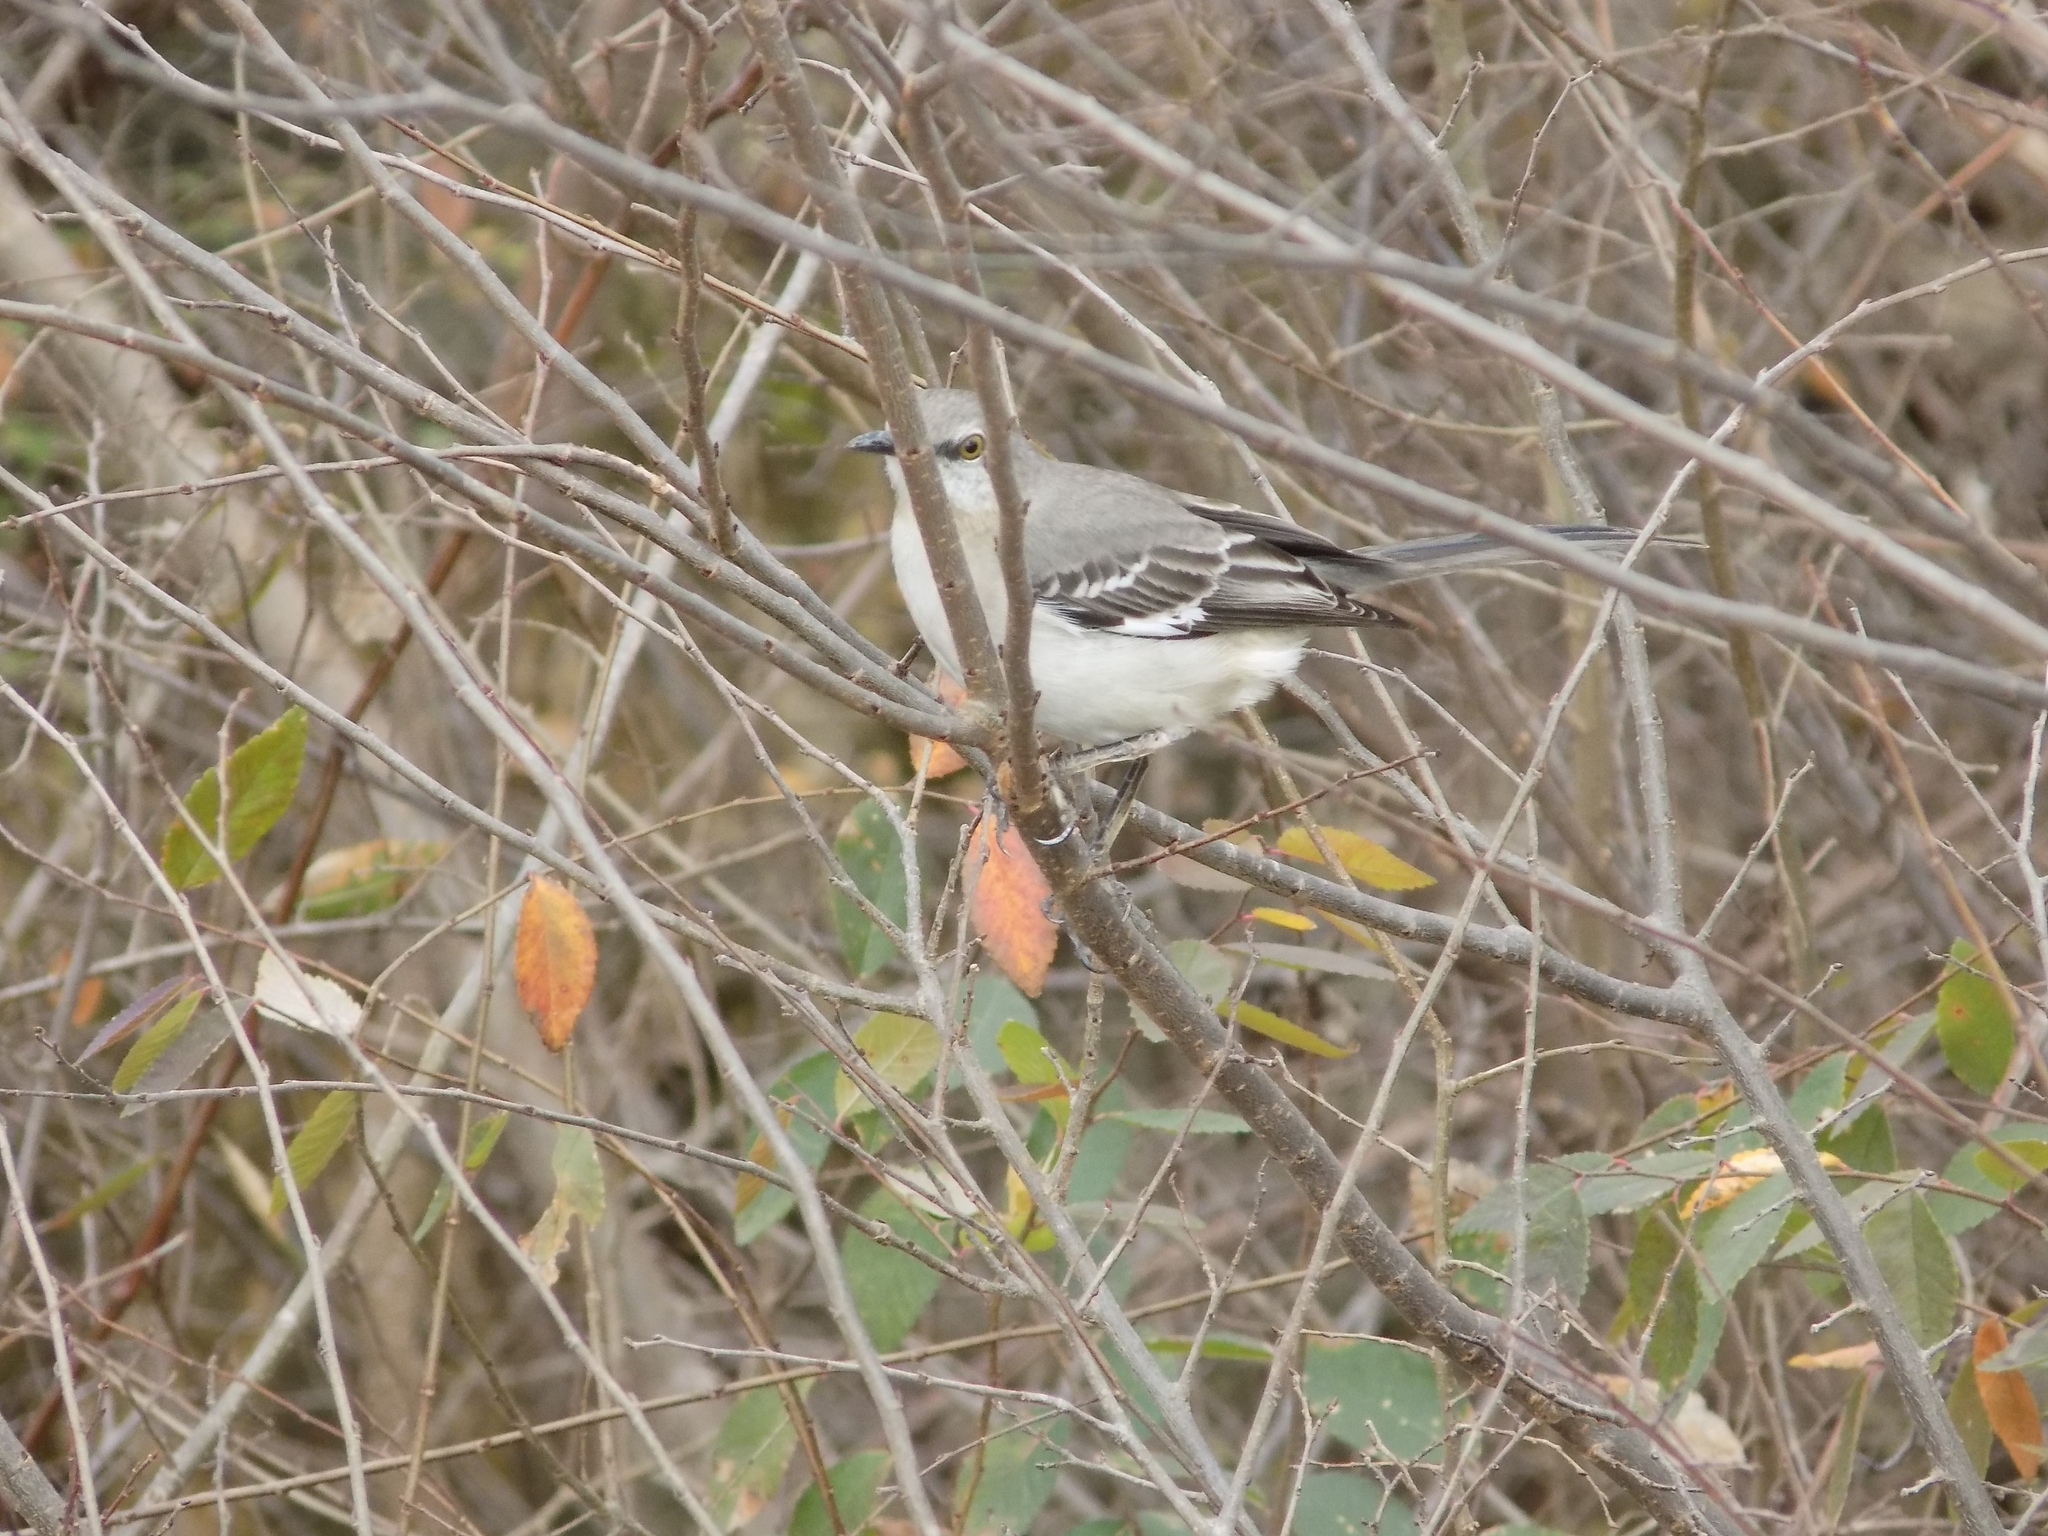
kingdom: Animalia
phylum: Chordata
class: Aves
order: Passeriformes
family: Mimidae
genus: Mimus
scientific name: Mimus polyglottos
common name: Northern mockingbird
